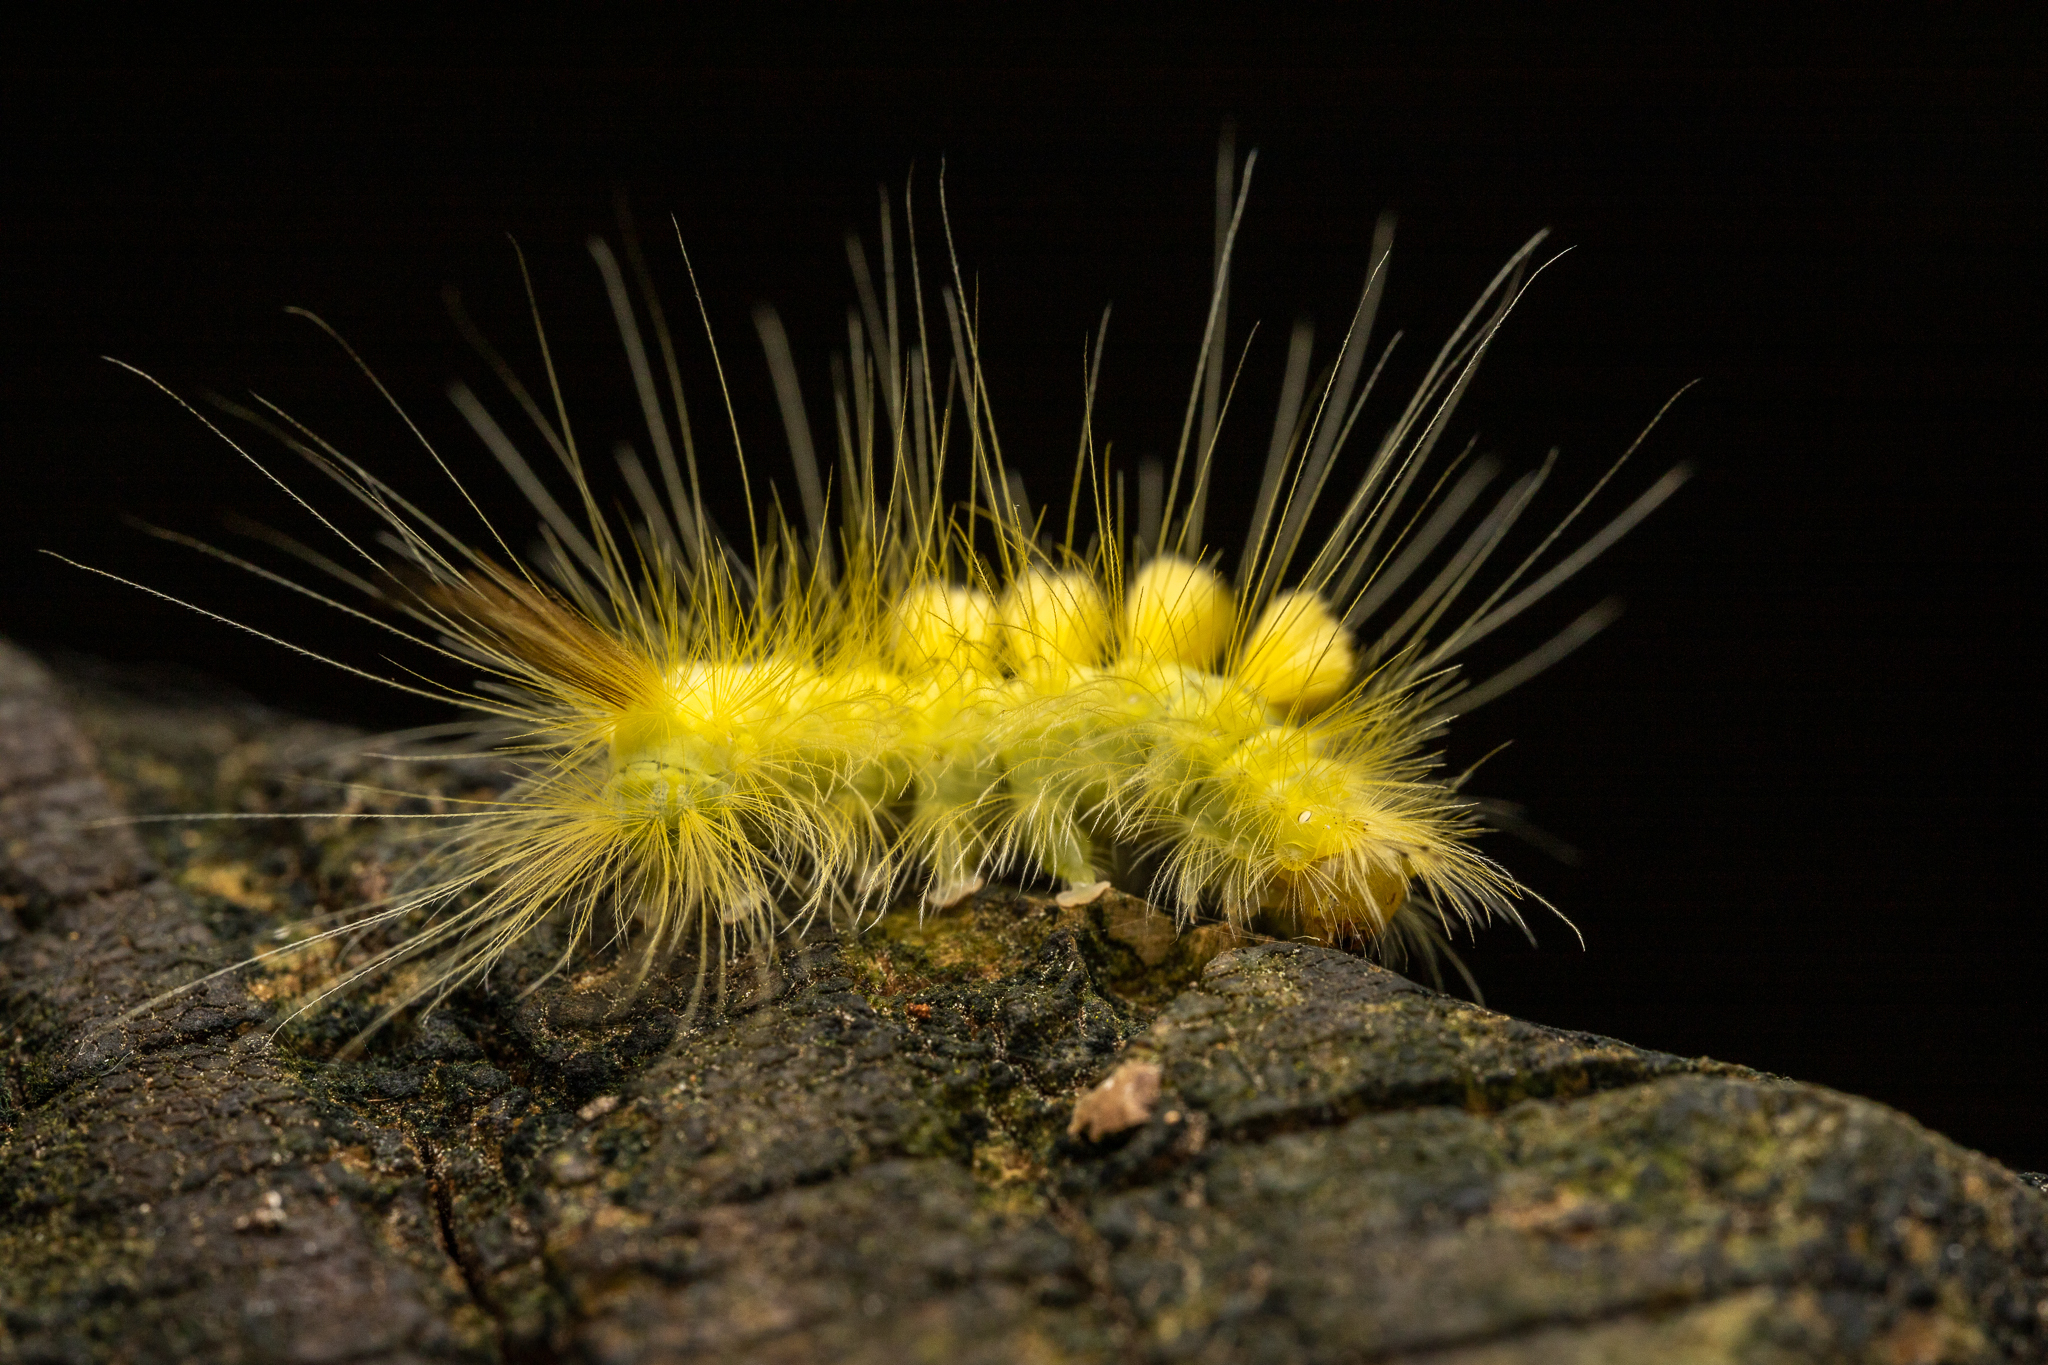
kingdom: Animalia
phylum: Arthropoda
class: Insecta
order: Lepidoptera
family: Erebidae
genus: Orgyia
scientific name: Orgyia definita
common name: Definite tussock moth
